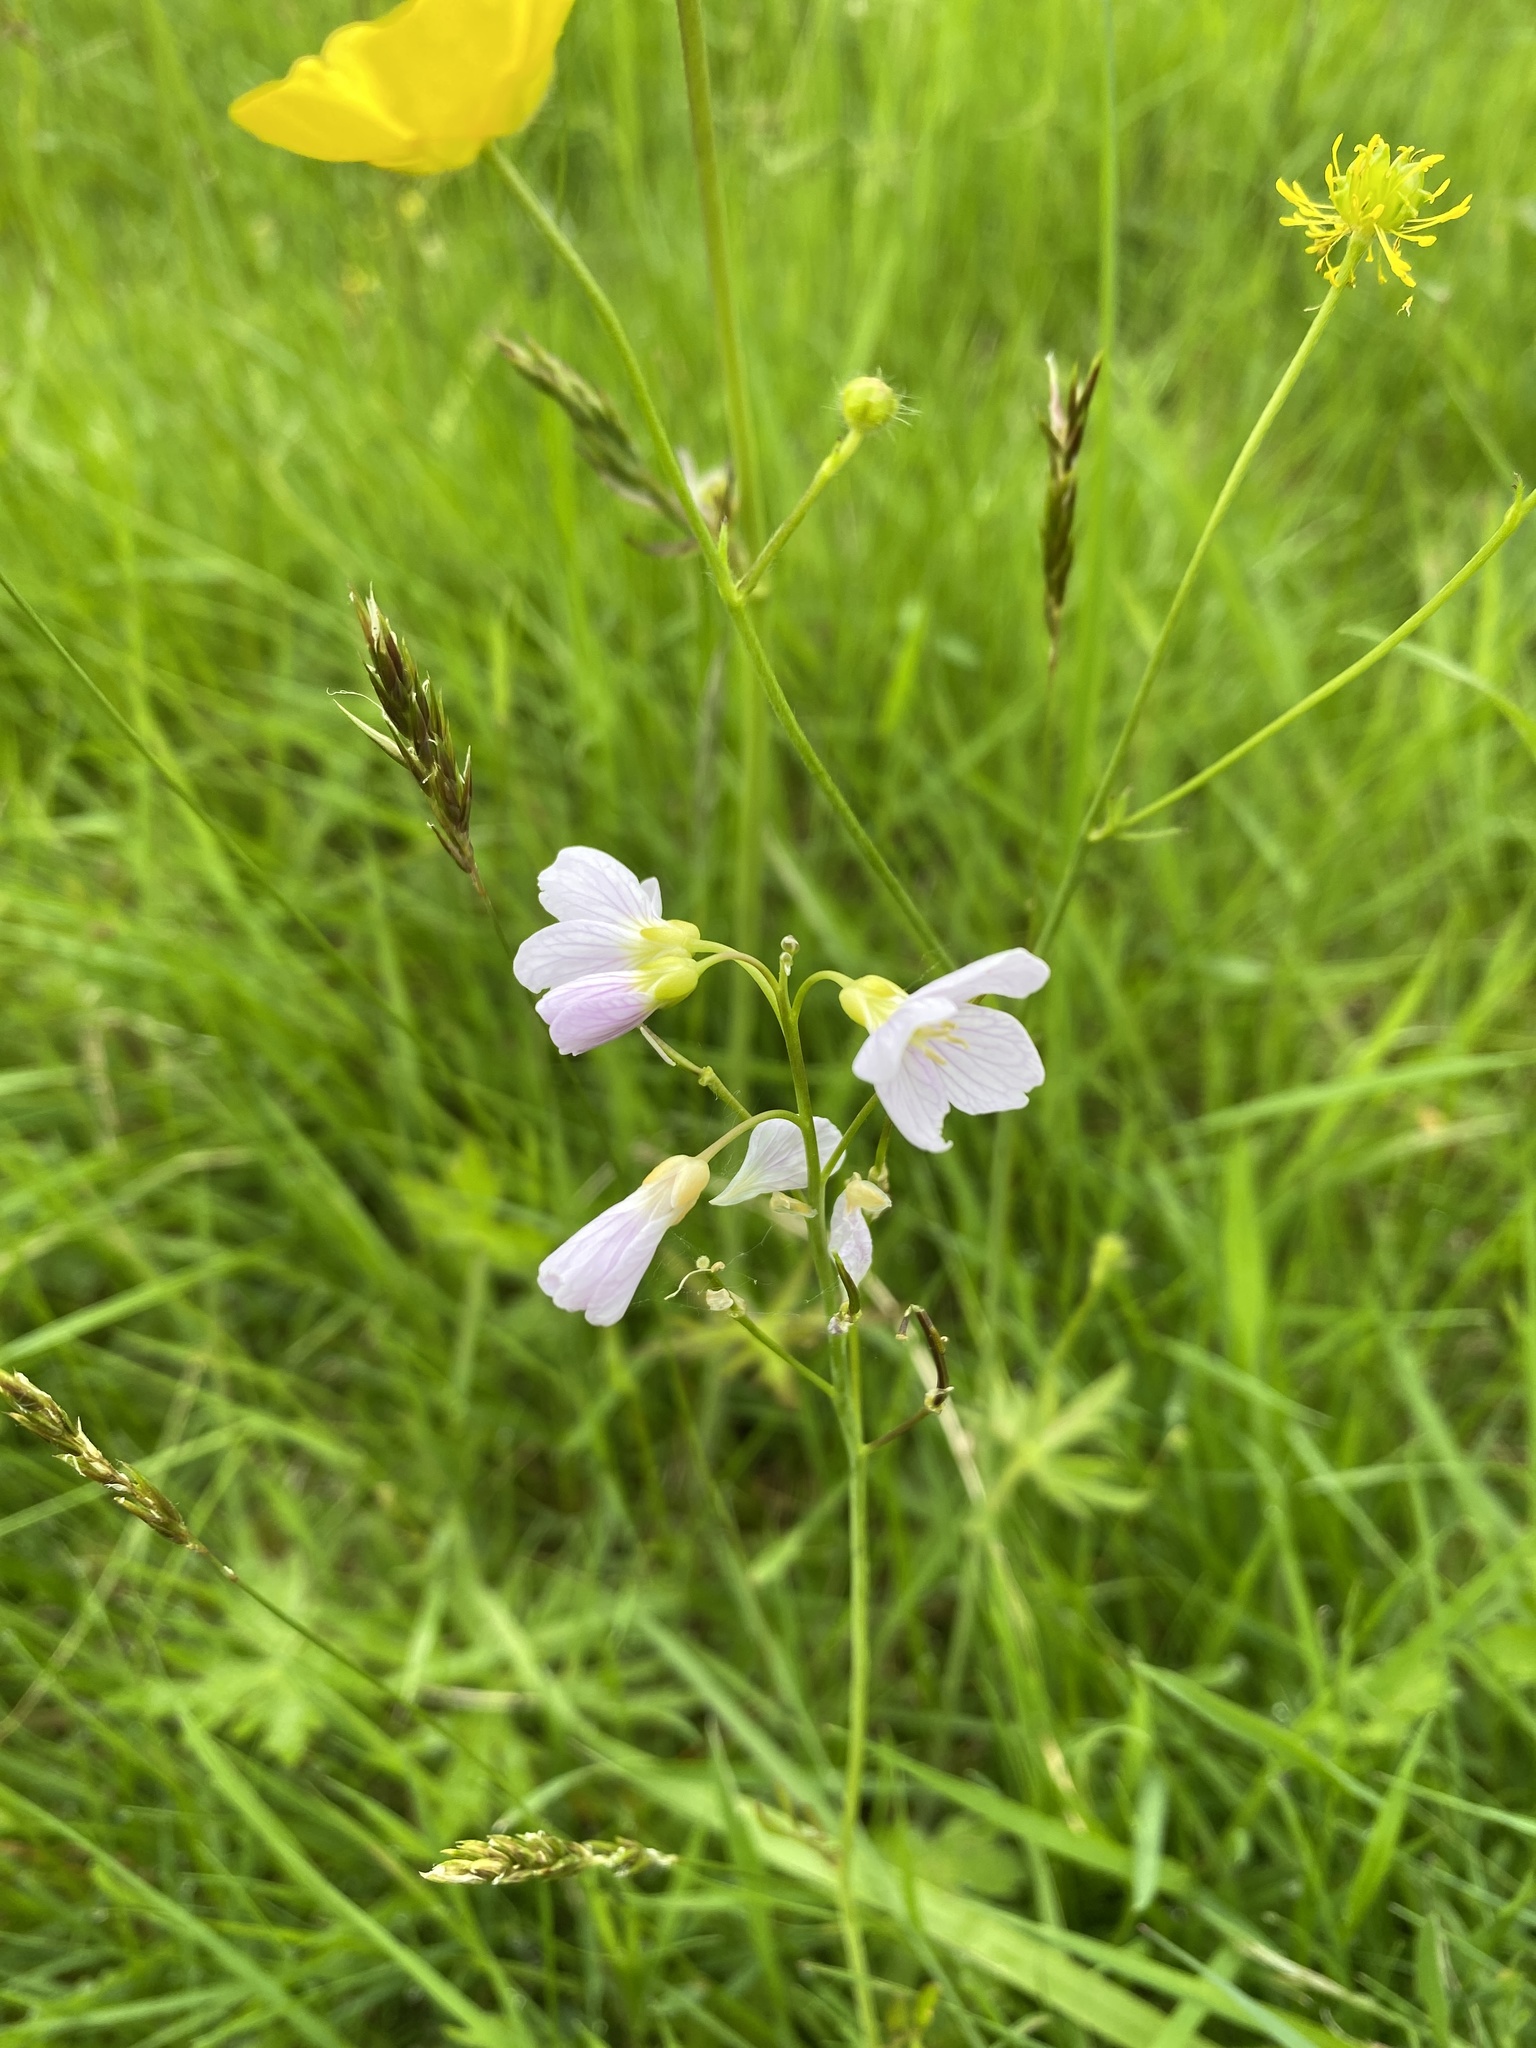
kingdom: Plantae
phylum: Tracheophyta
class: Magnoliopsida
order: Brassicales
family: Brassicaceae
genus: Cardamine
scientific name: Cardamine pratensis
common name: Cuckoo flower
